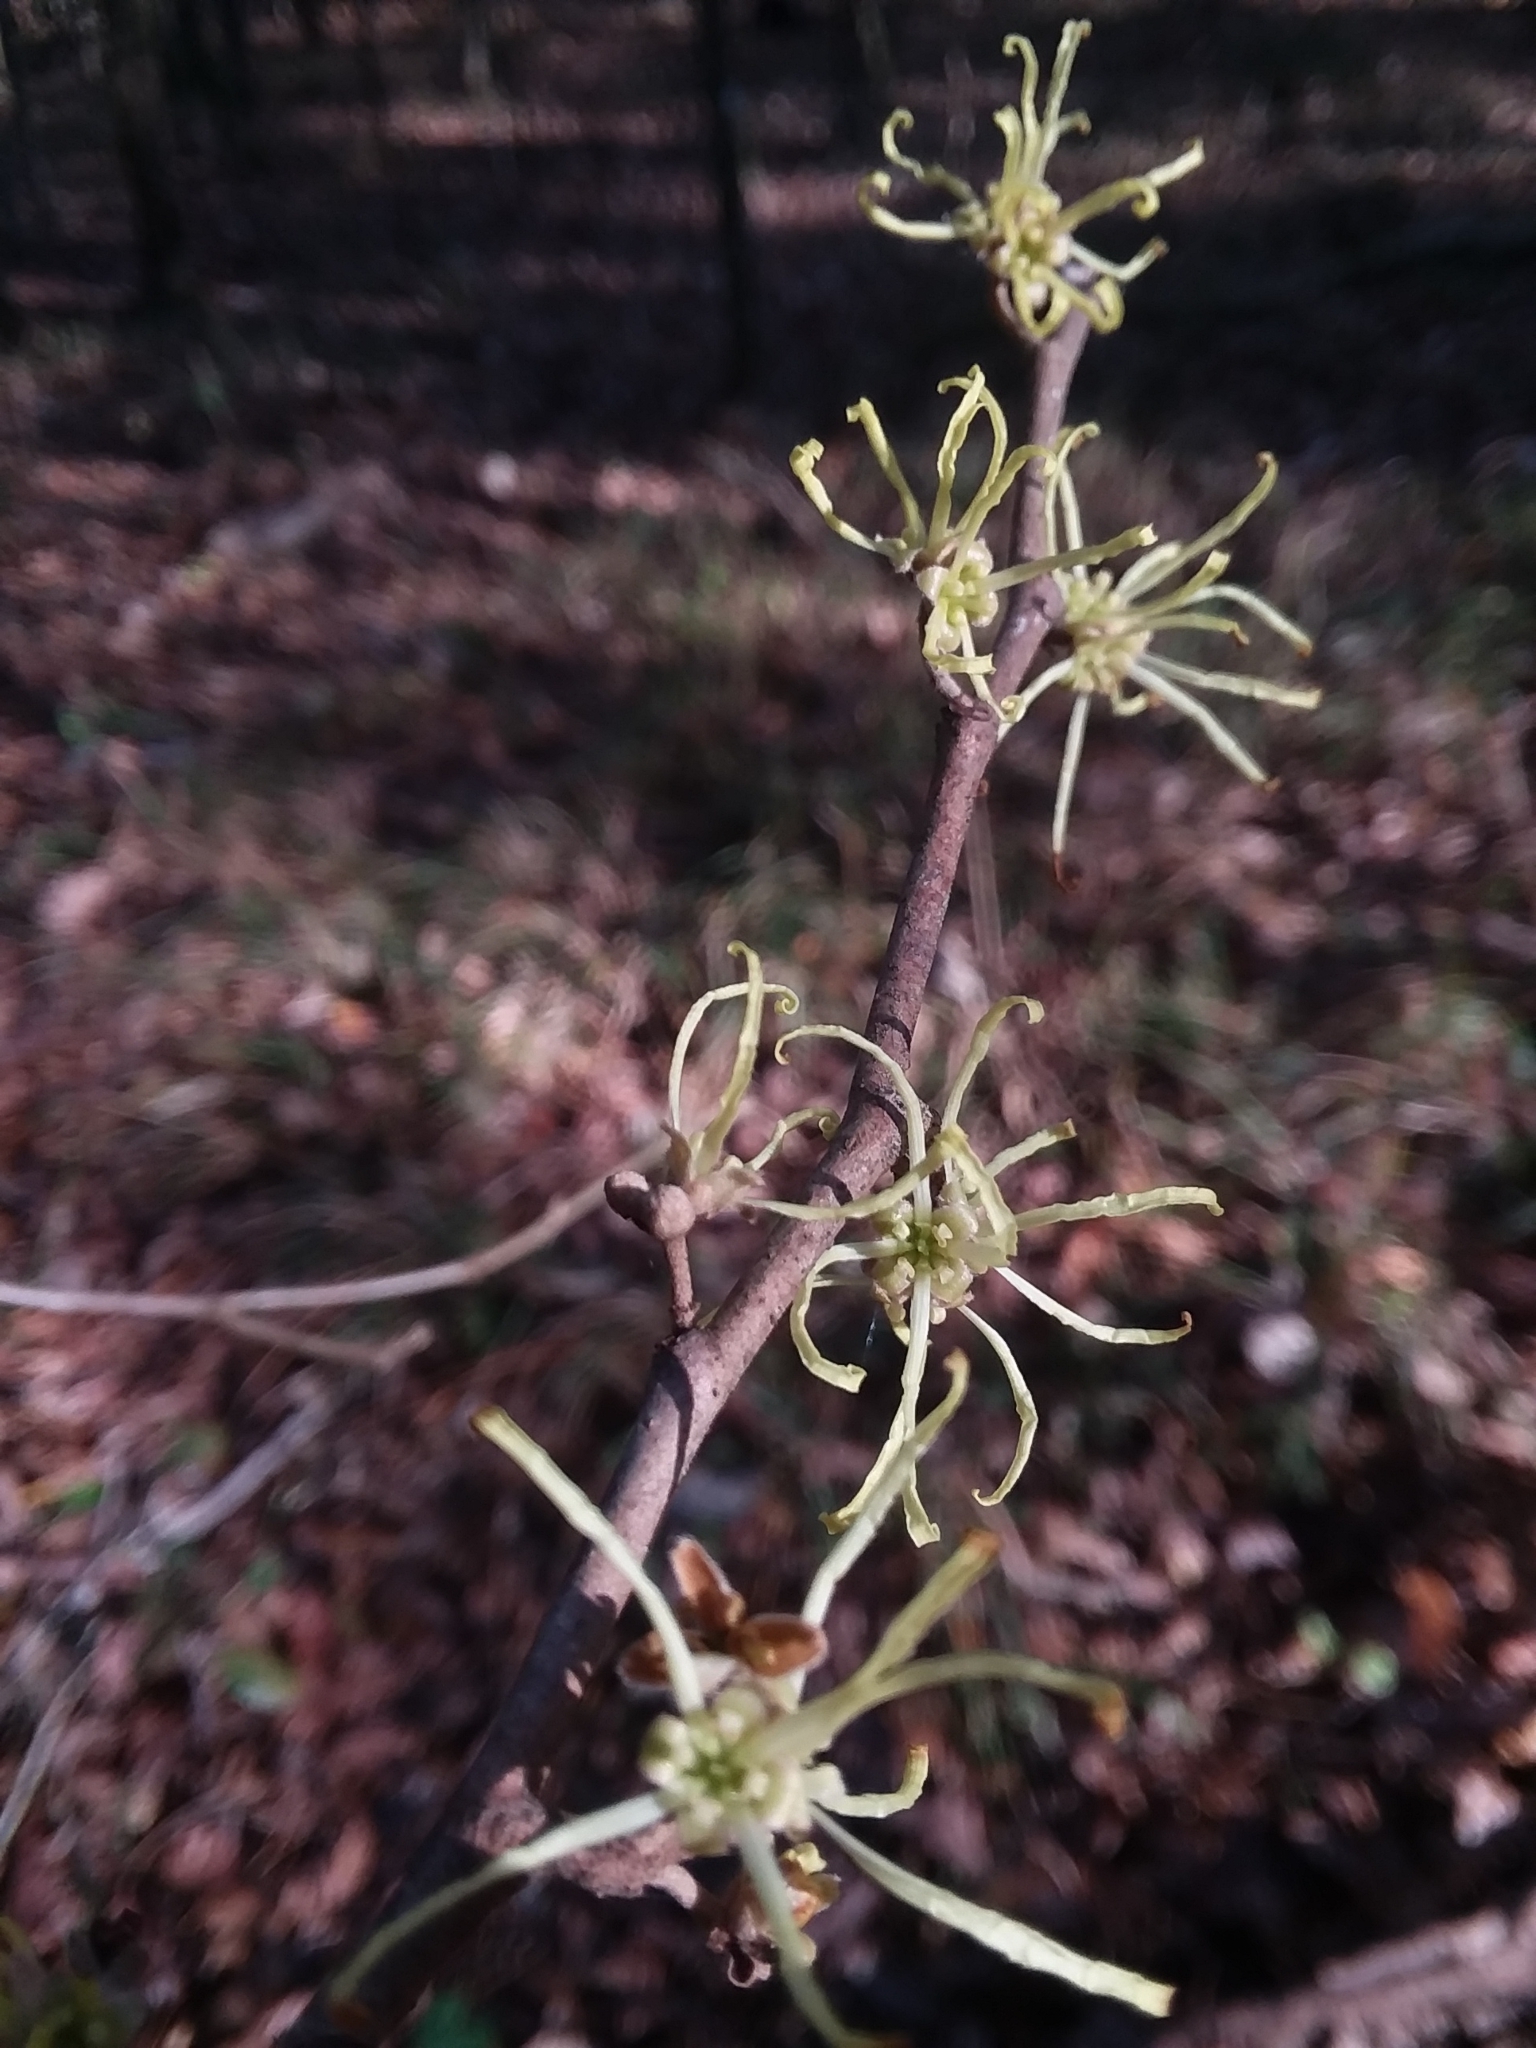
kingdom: Plantae
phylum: Tracheophyta
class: Magnoliopsida
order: Saxifragales
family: Hamamelidaceae
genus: Hamamelis
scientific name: Hamamelis virginiana
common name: Witch-hazel
